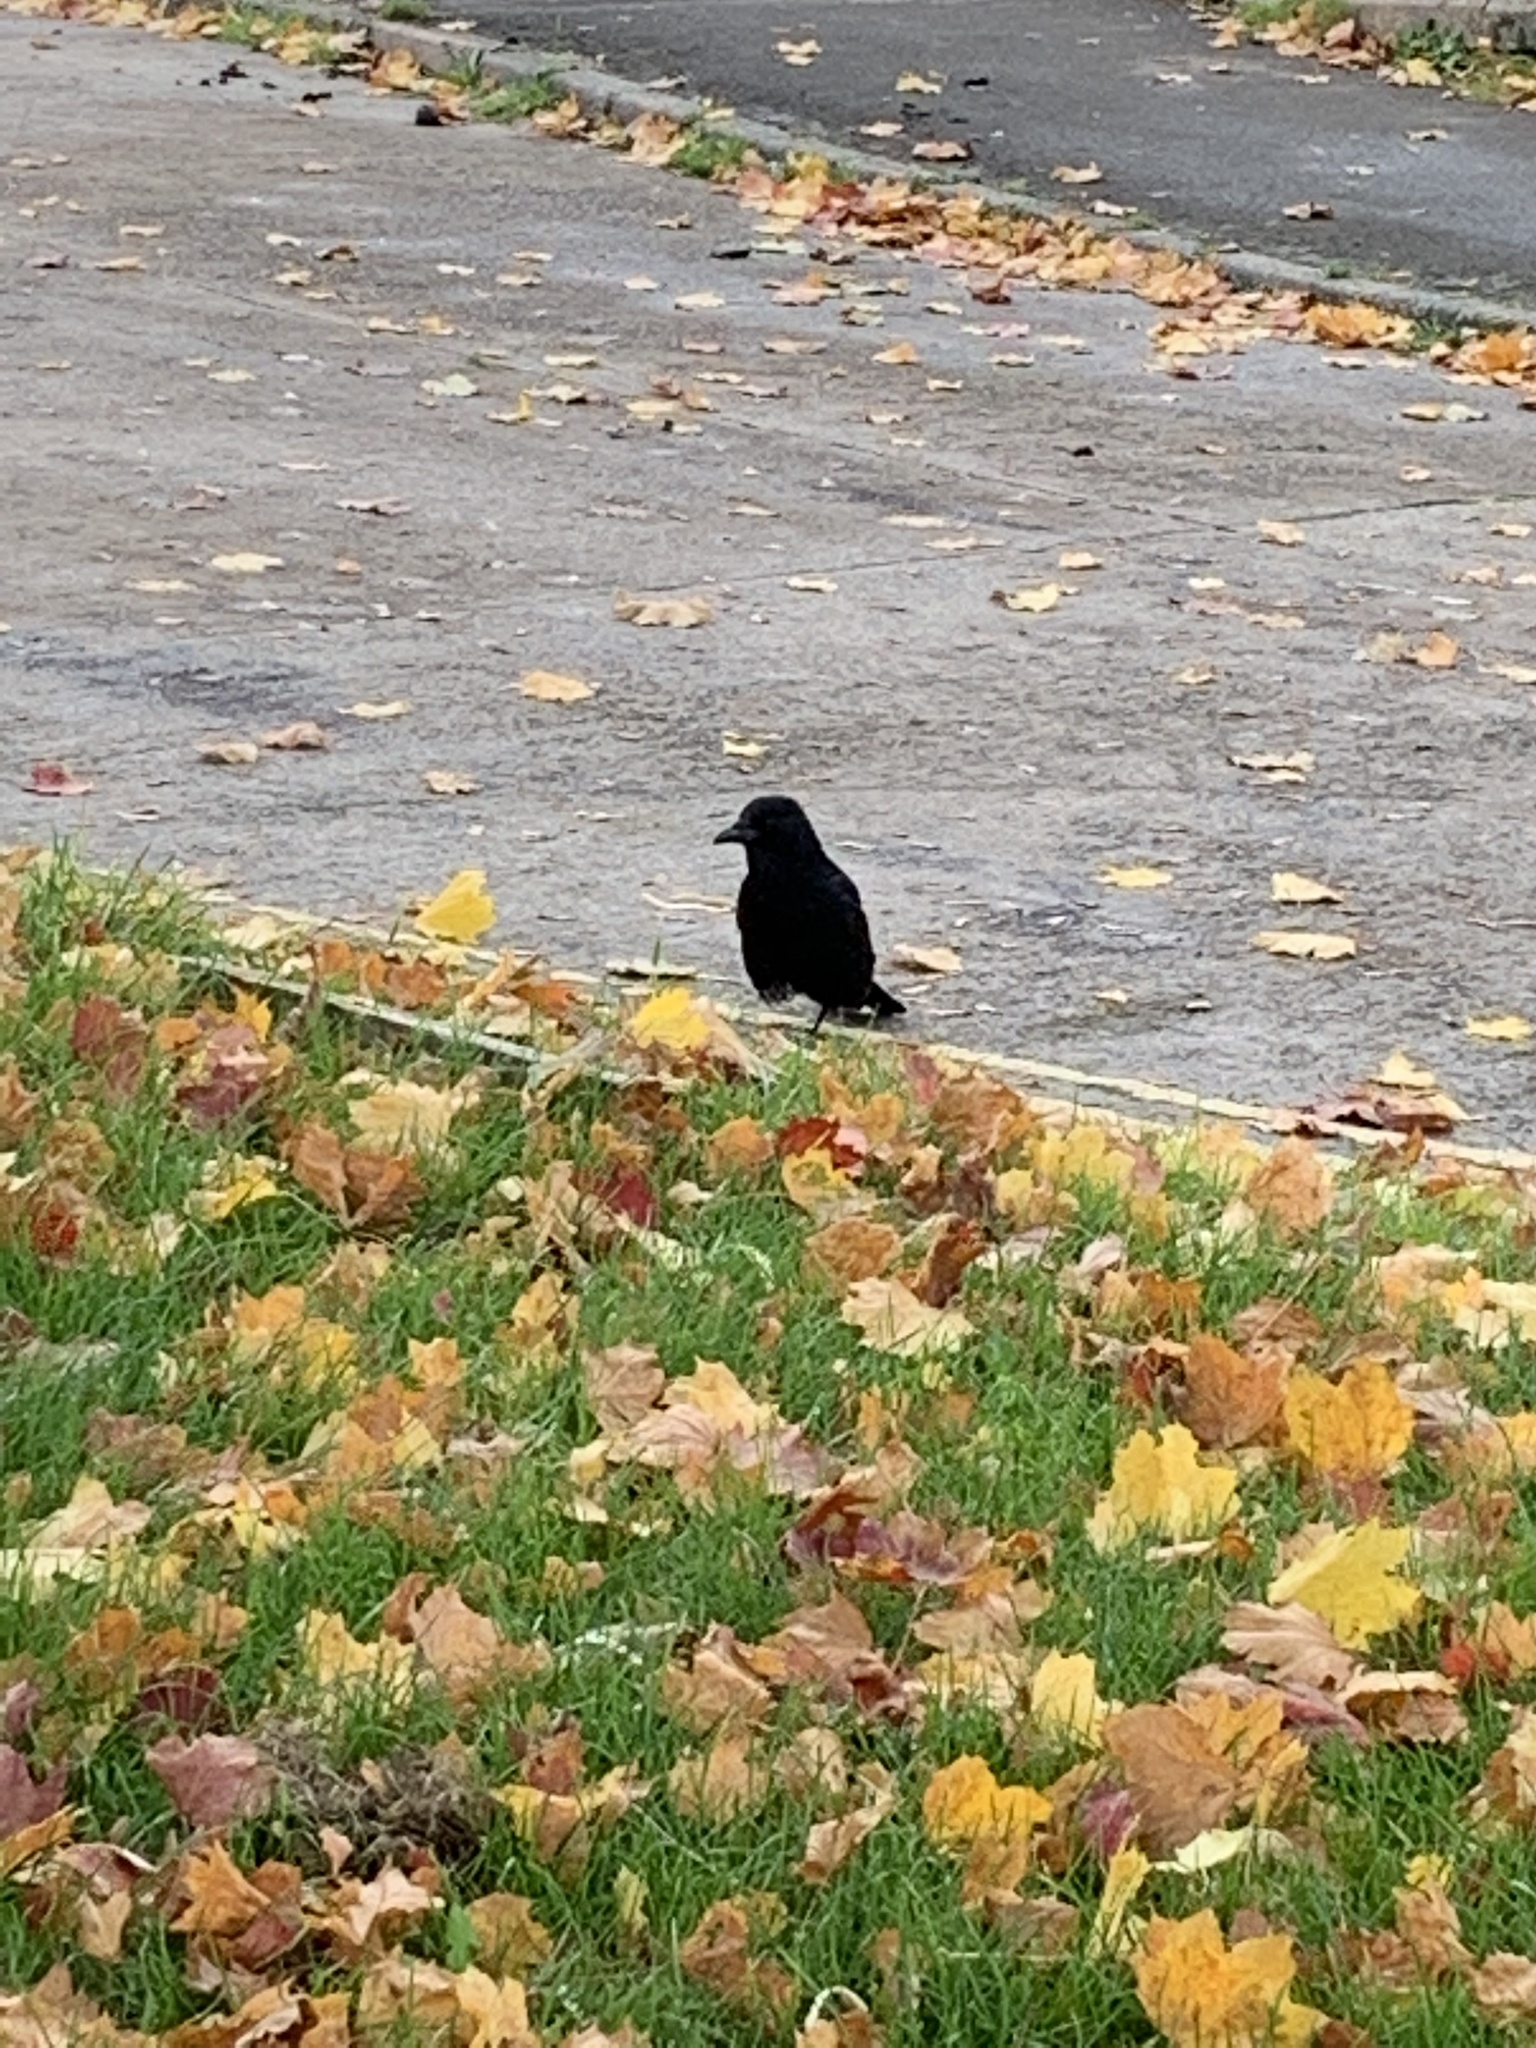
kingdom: Animalia
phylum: Chordata
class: Aves
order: Passeriformes
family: Corvidae
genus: Corvus
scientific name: Corvus corone
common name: Carrion crow
